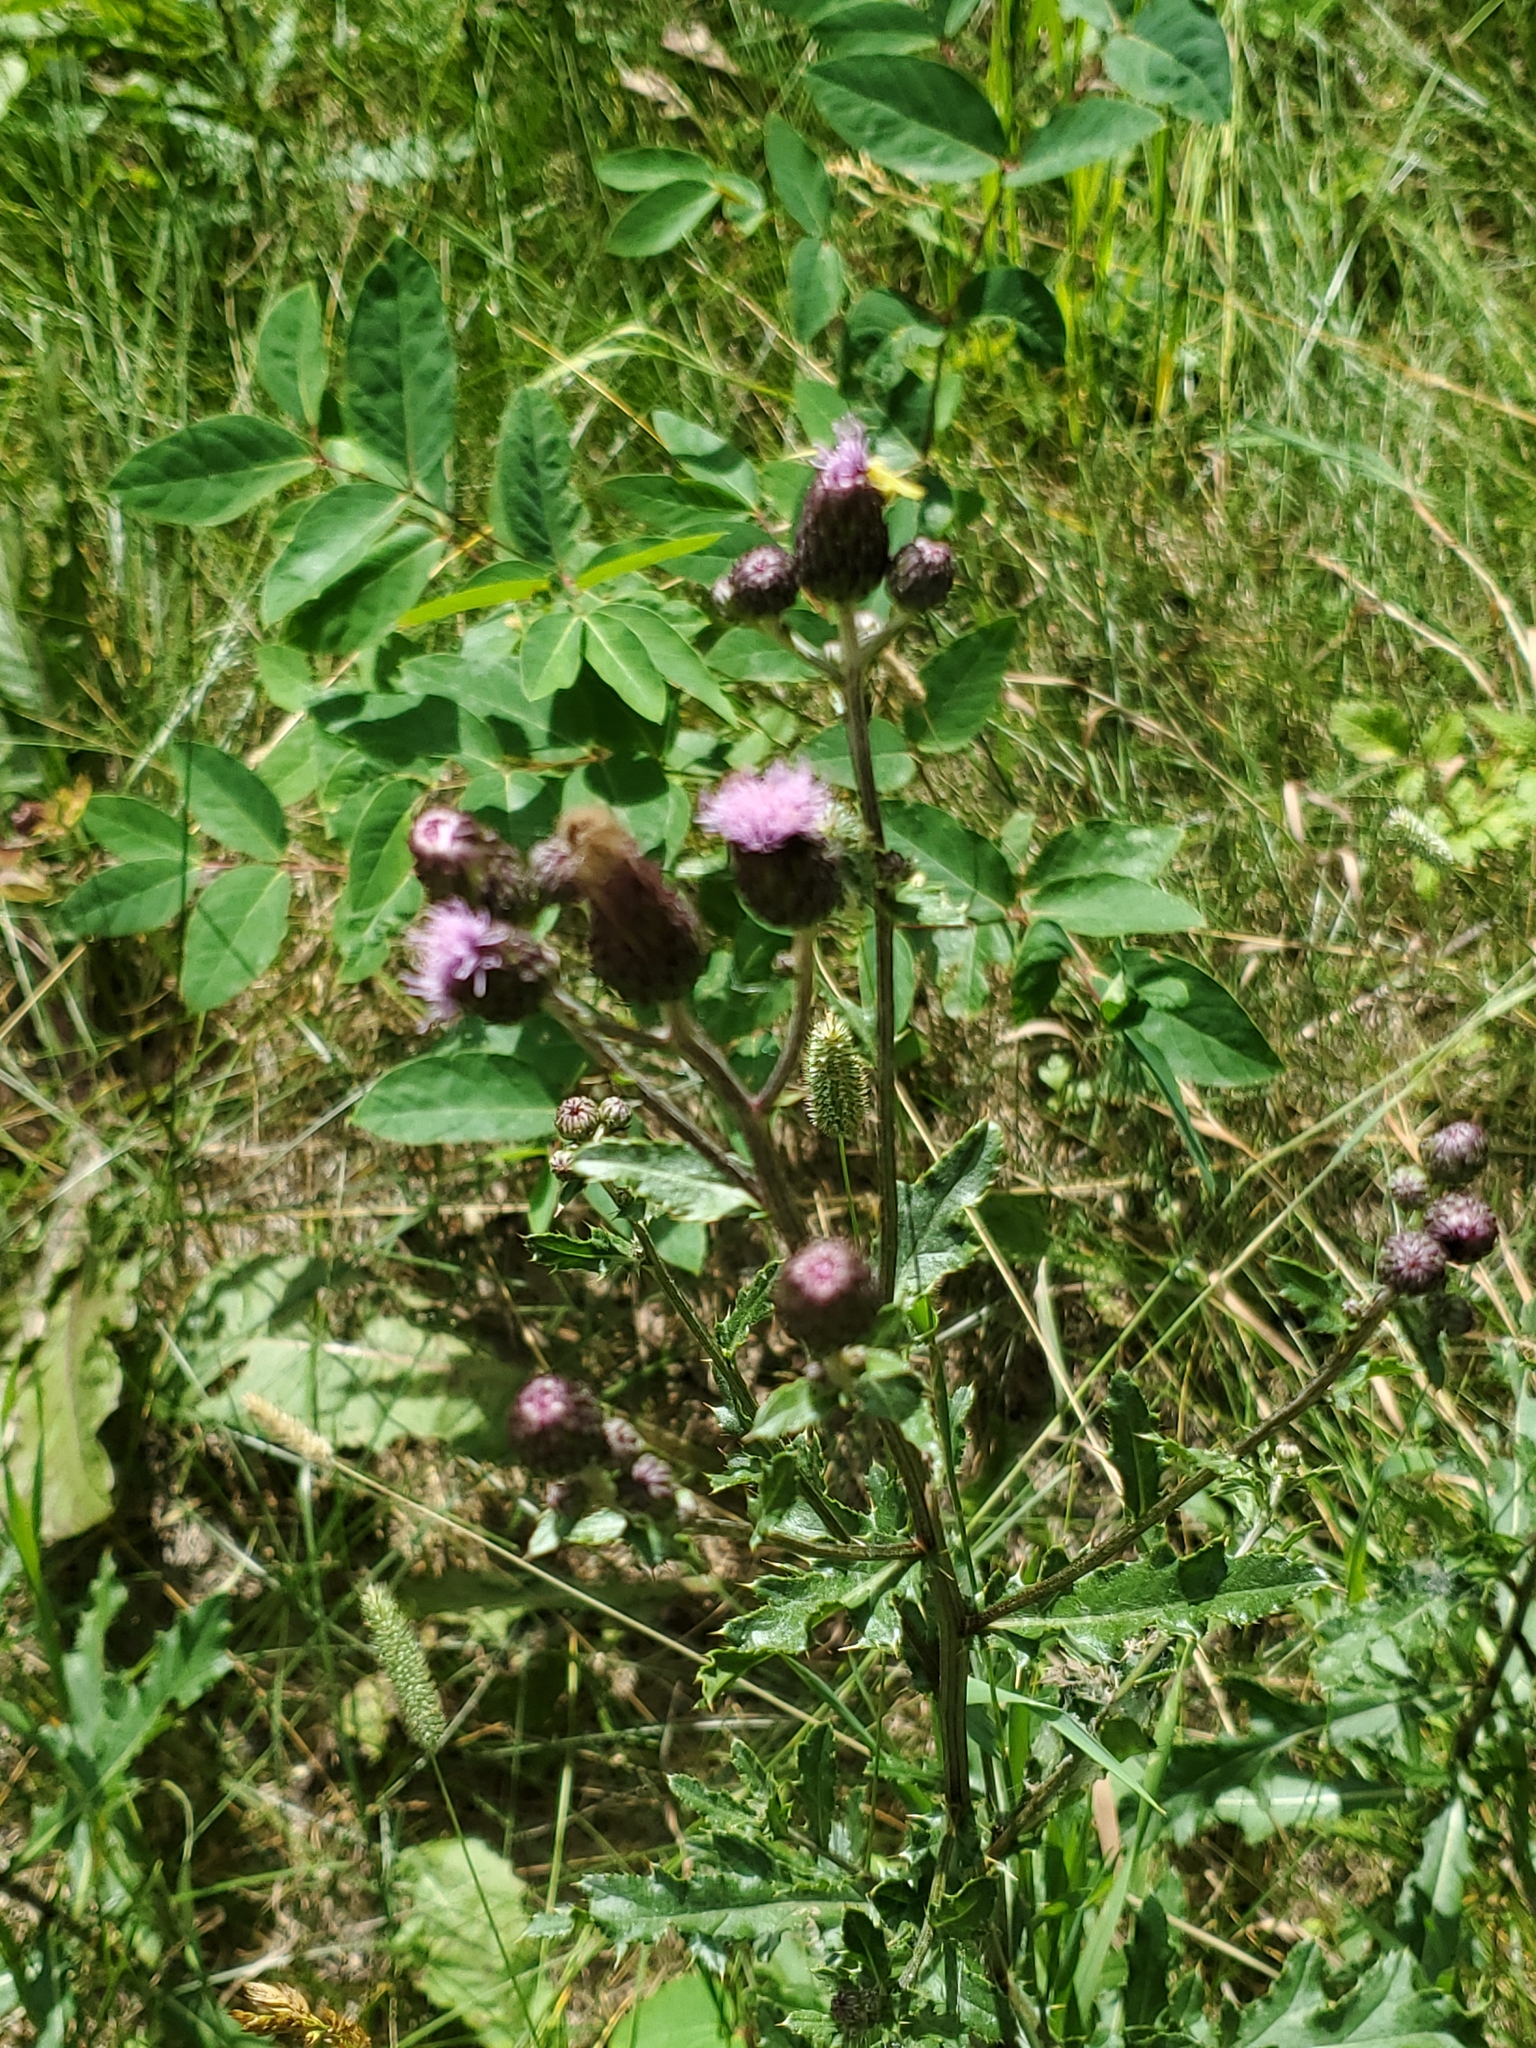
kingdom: Plantae
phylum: Tracheophyta
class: Magnoliopsida
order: Asterales
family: Asteraceae
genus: Cirsium
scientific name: Cirsium arvense
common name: Creeping thistle
